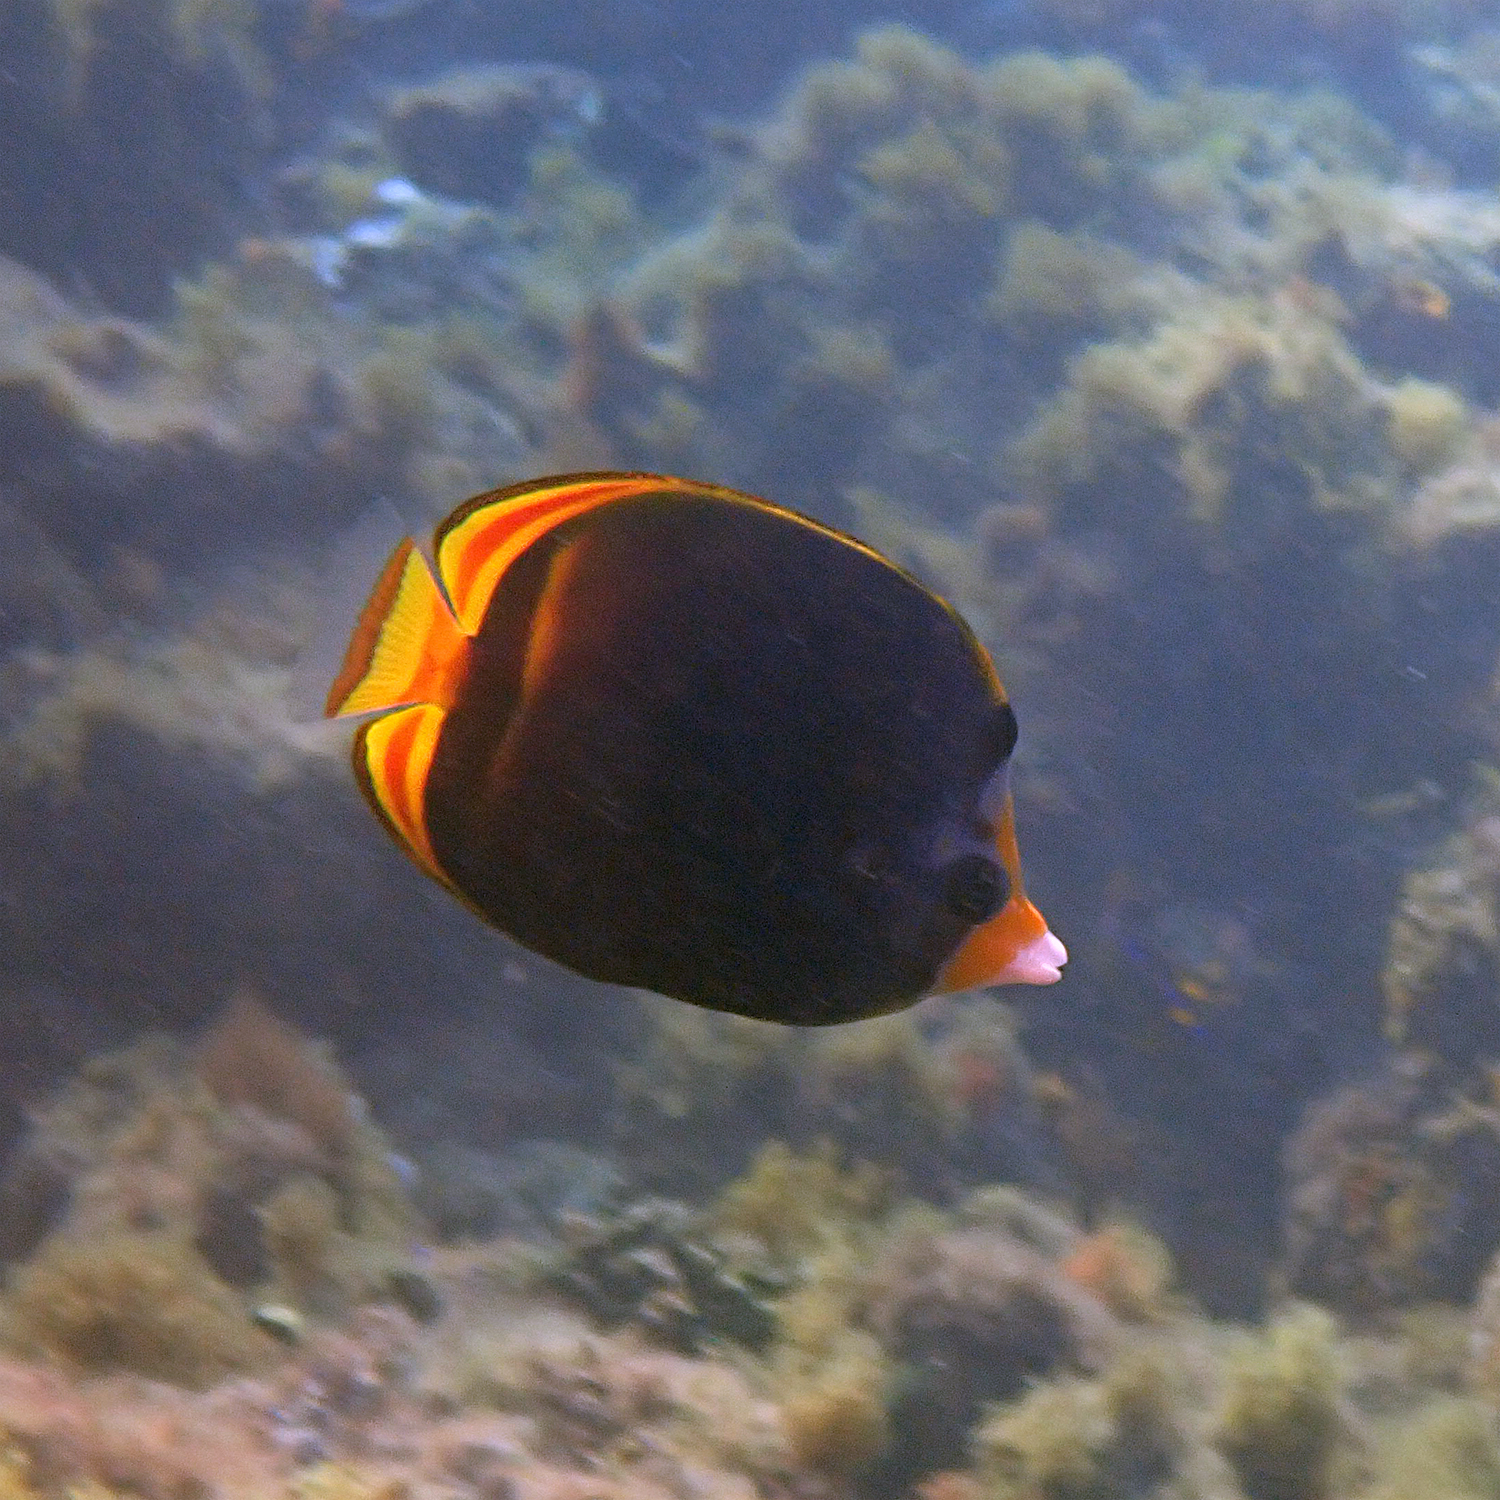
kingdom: Animalia
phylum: Chordata
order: Perciformes
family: Chaetodontidae
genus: Chaetodon
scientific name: Chaetodon flavirostris
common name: Black butterflyfish
